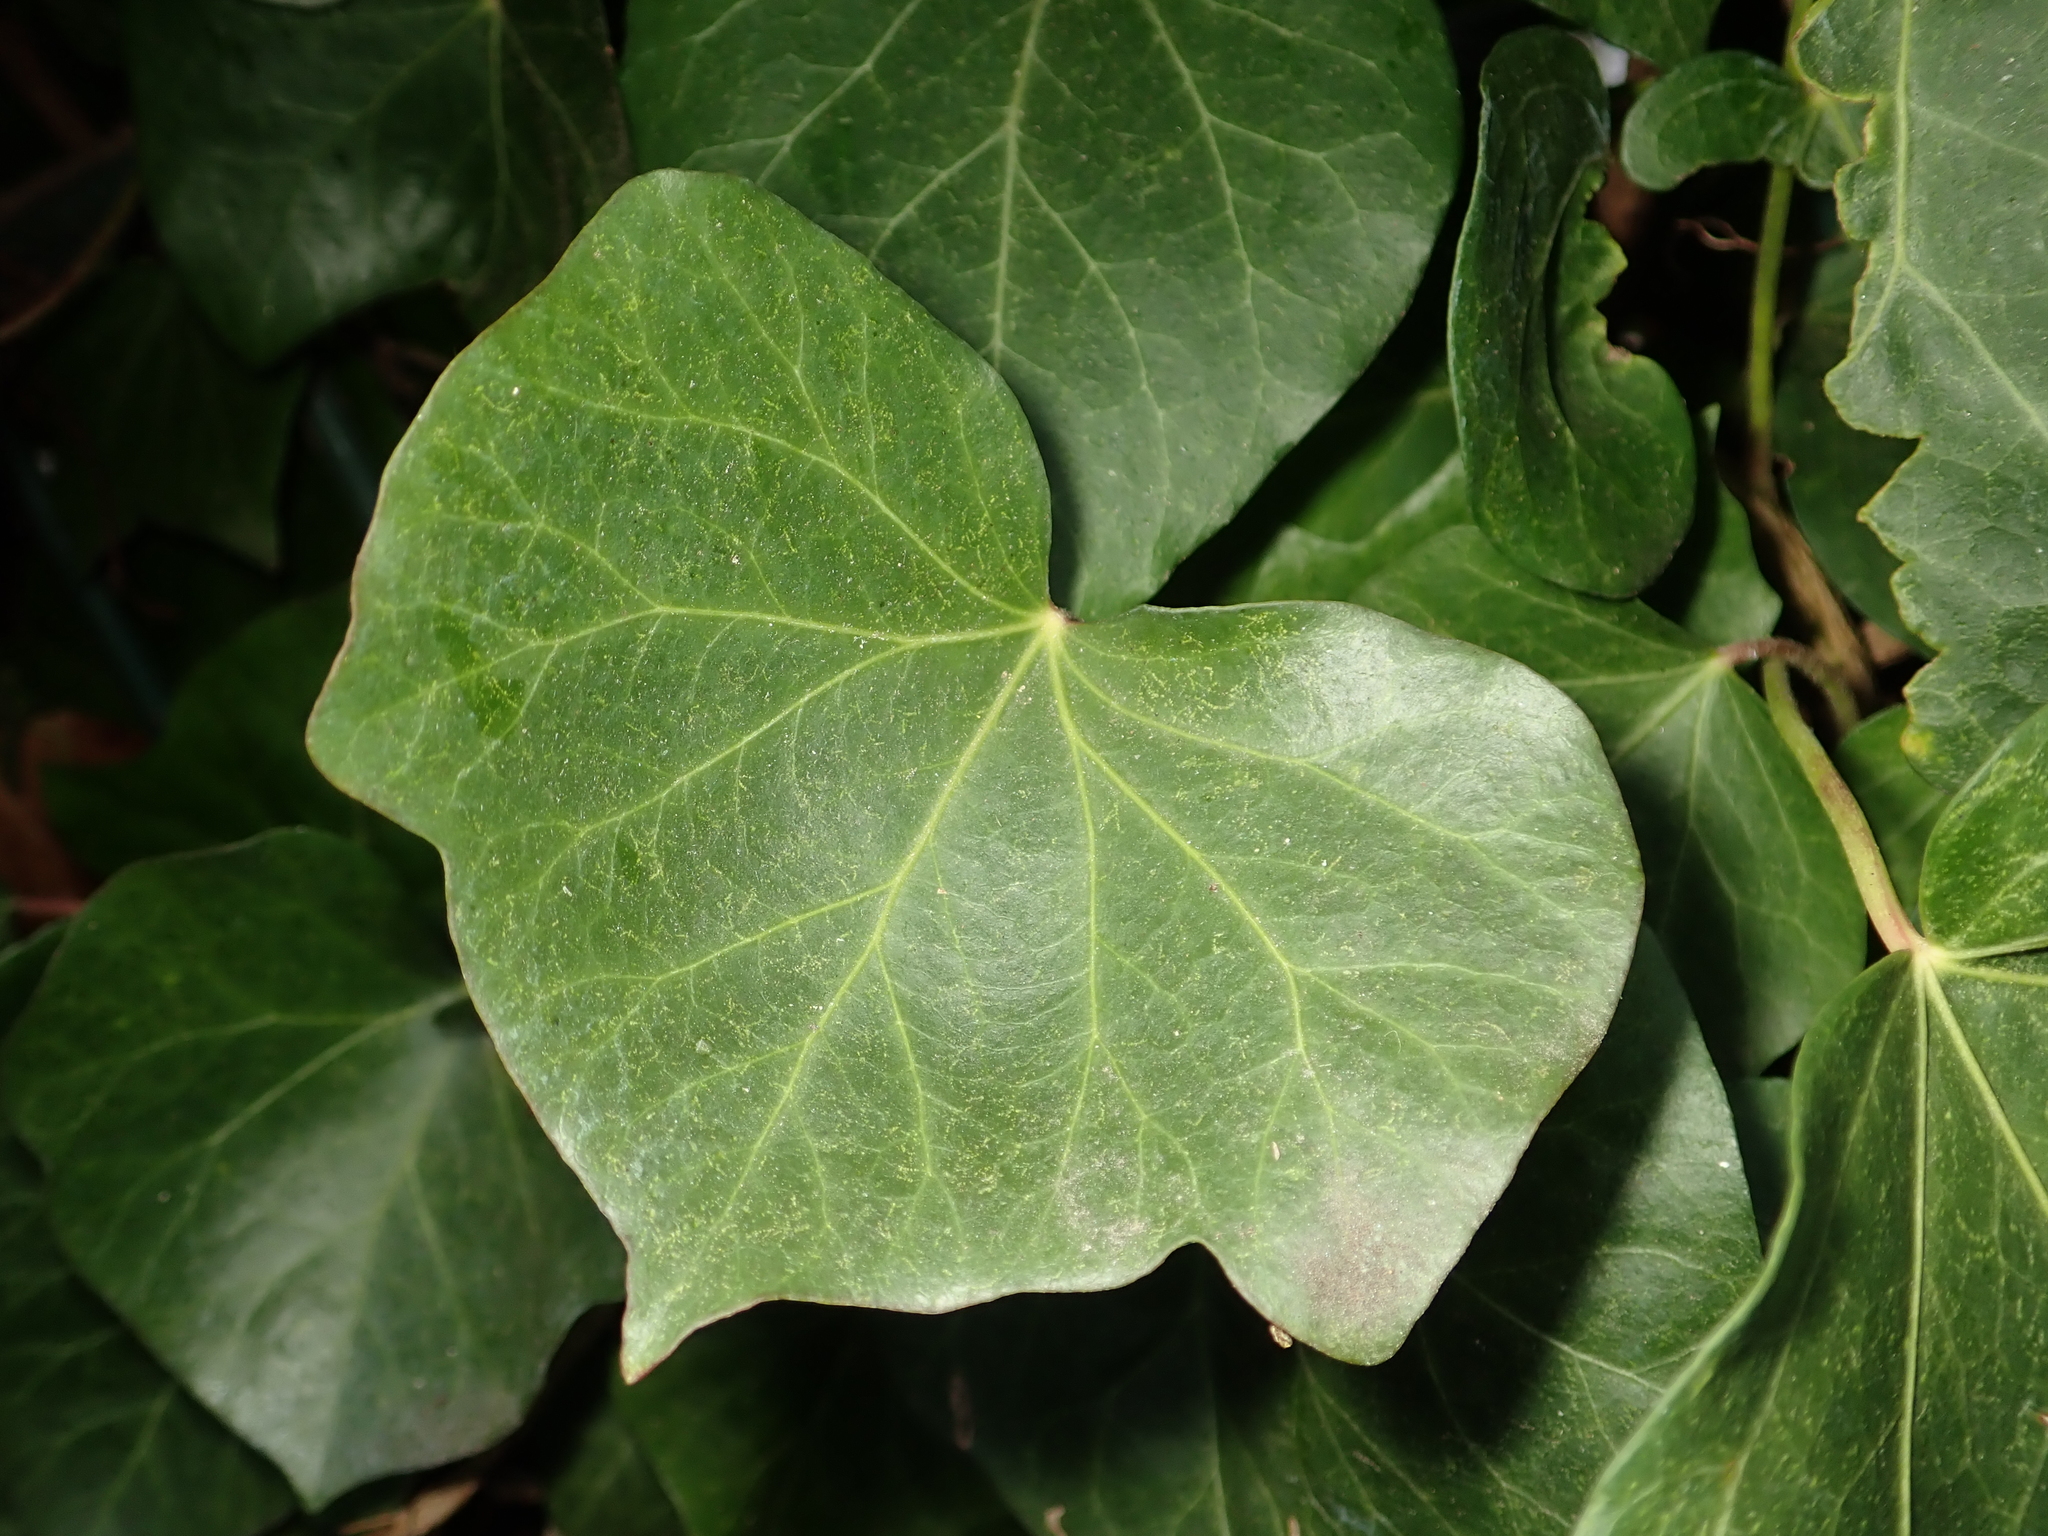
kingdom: Plantae
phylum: Tracheophyta
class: Magnoliopsida
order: Apiales
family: Araliaceae
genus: Hedera
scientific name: Hedera helix
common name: Ivy
